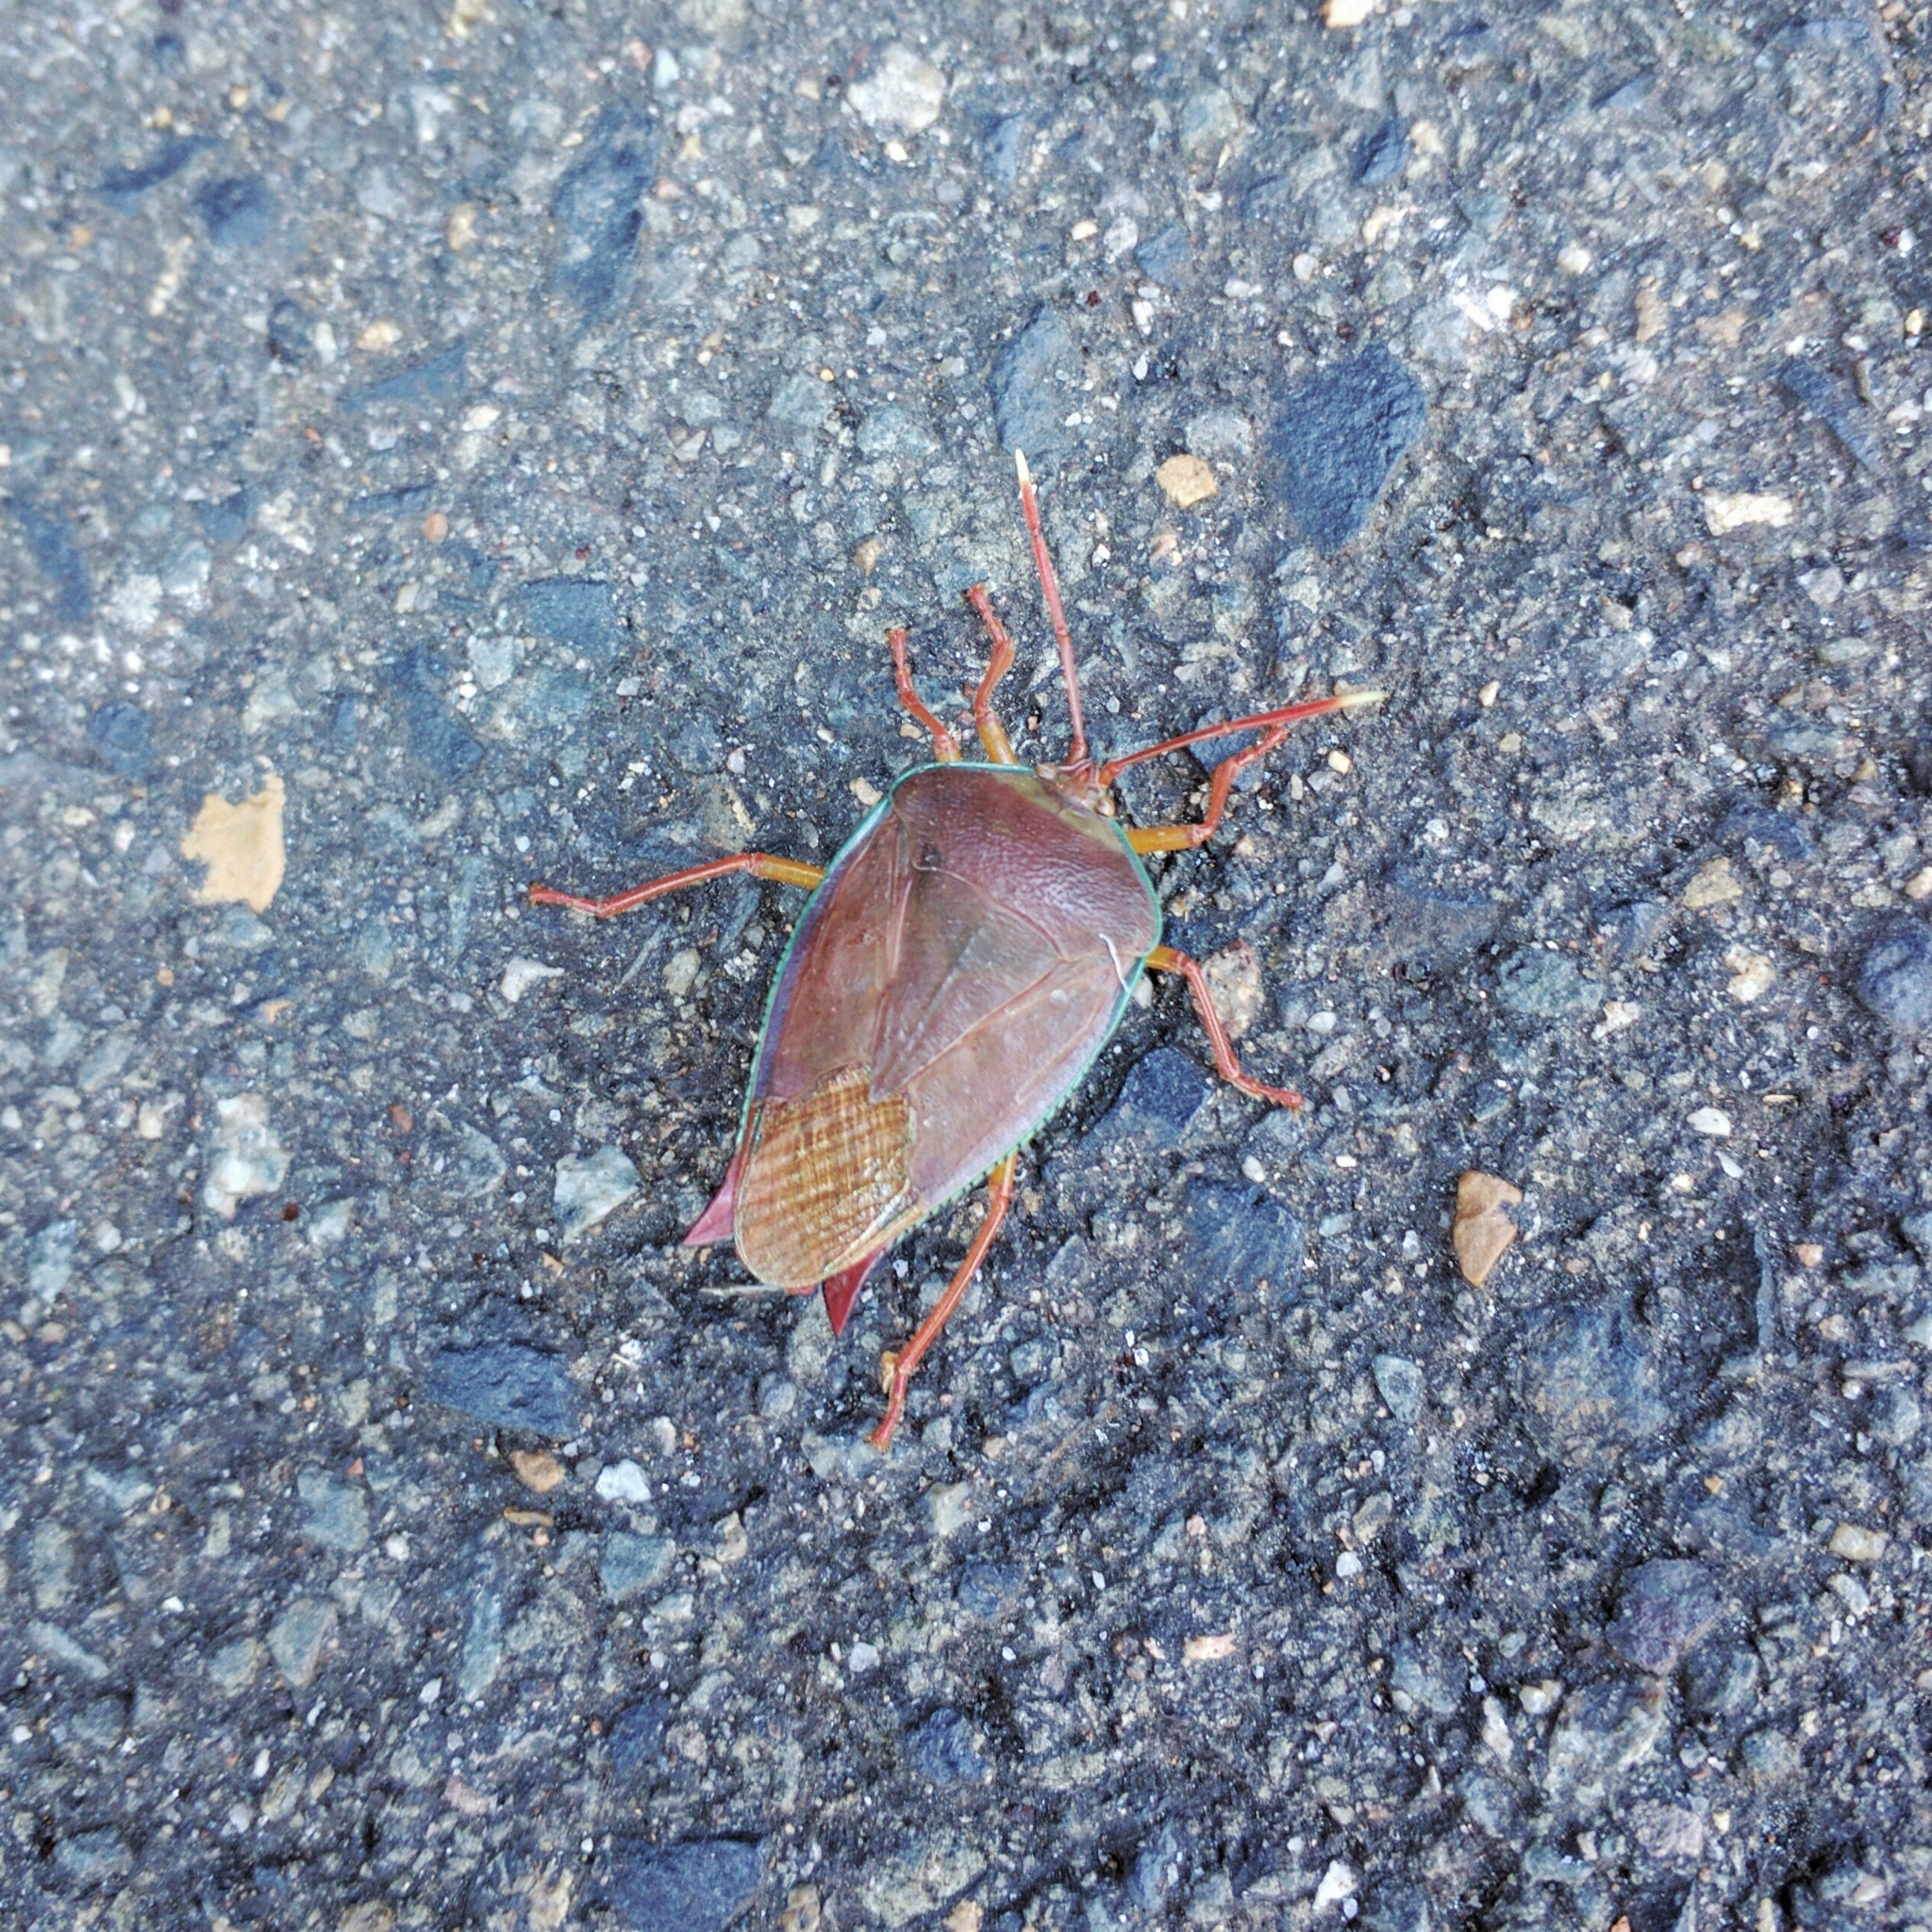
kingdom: Animalia
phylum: Arthropoda
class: Insecta
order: Hemiptera
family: Tessaratomidae
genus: Lyramorpha
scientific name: Lyramorpha rosea
